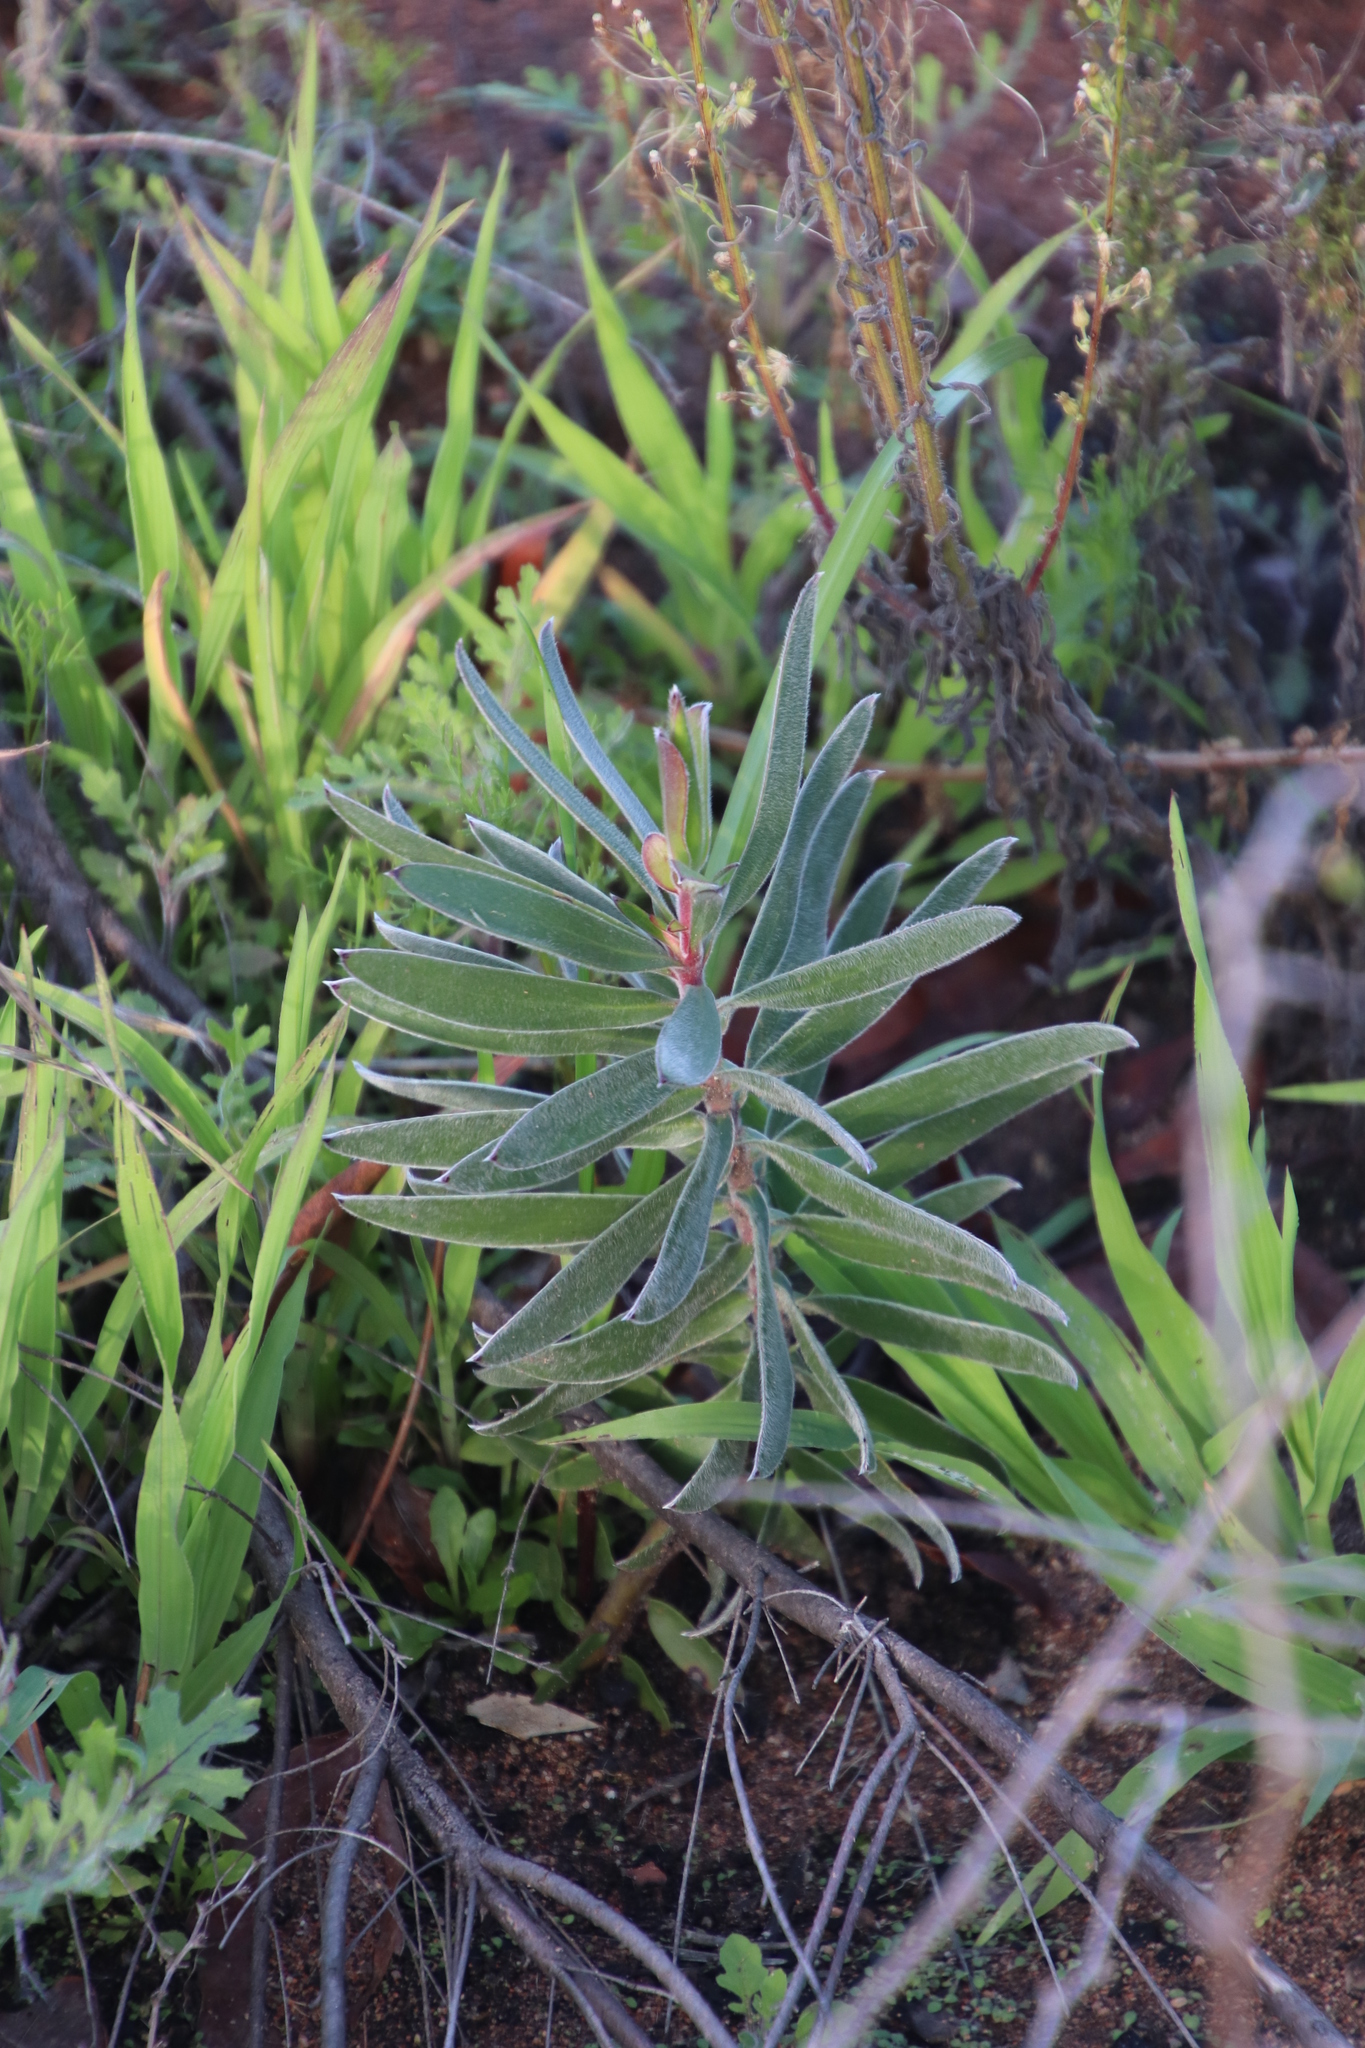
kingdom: Plantae
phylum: Tracheophyta
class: Magnoliopsida
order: Proteales
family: Proteaceae
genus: Leucadendron
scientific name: Leucadendron laureolum
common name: Golden sunshinebush
